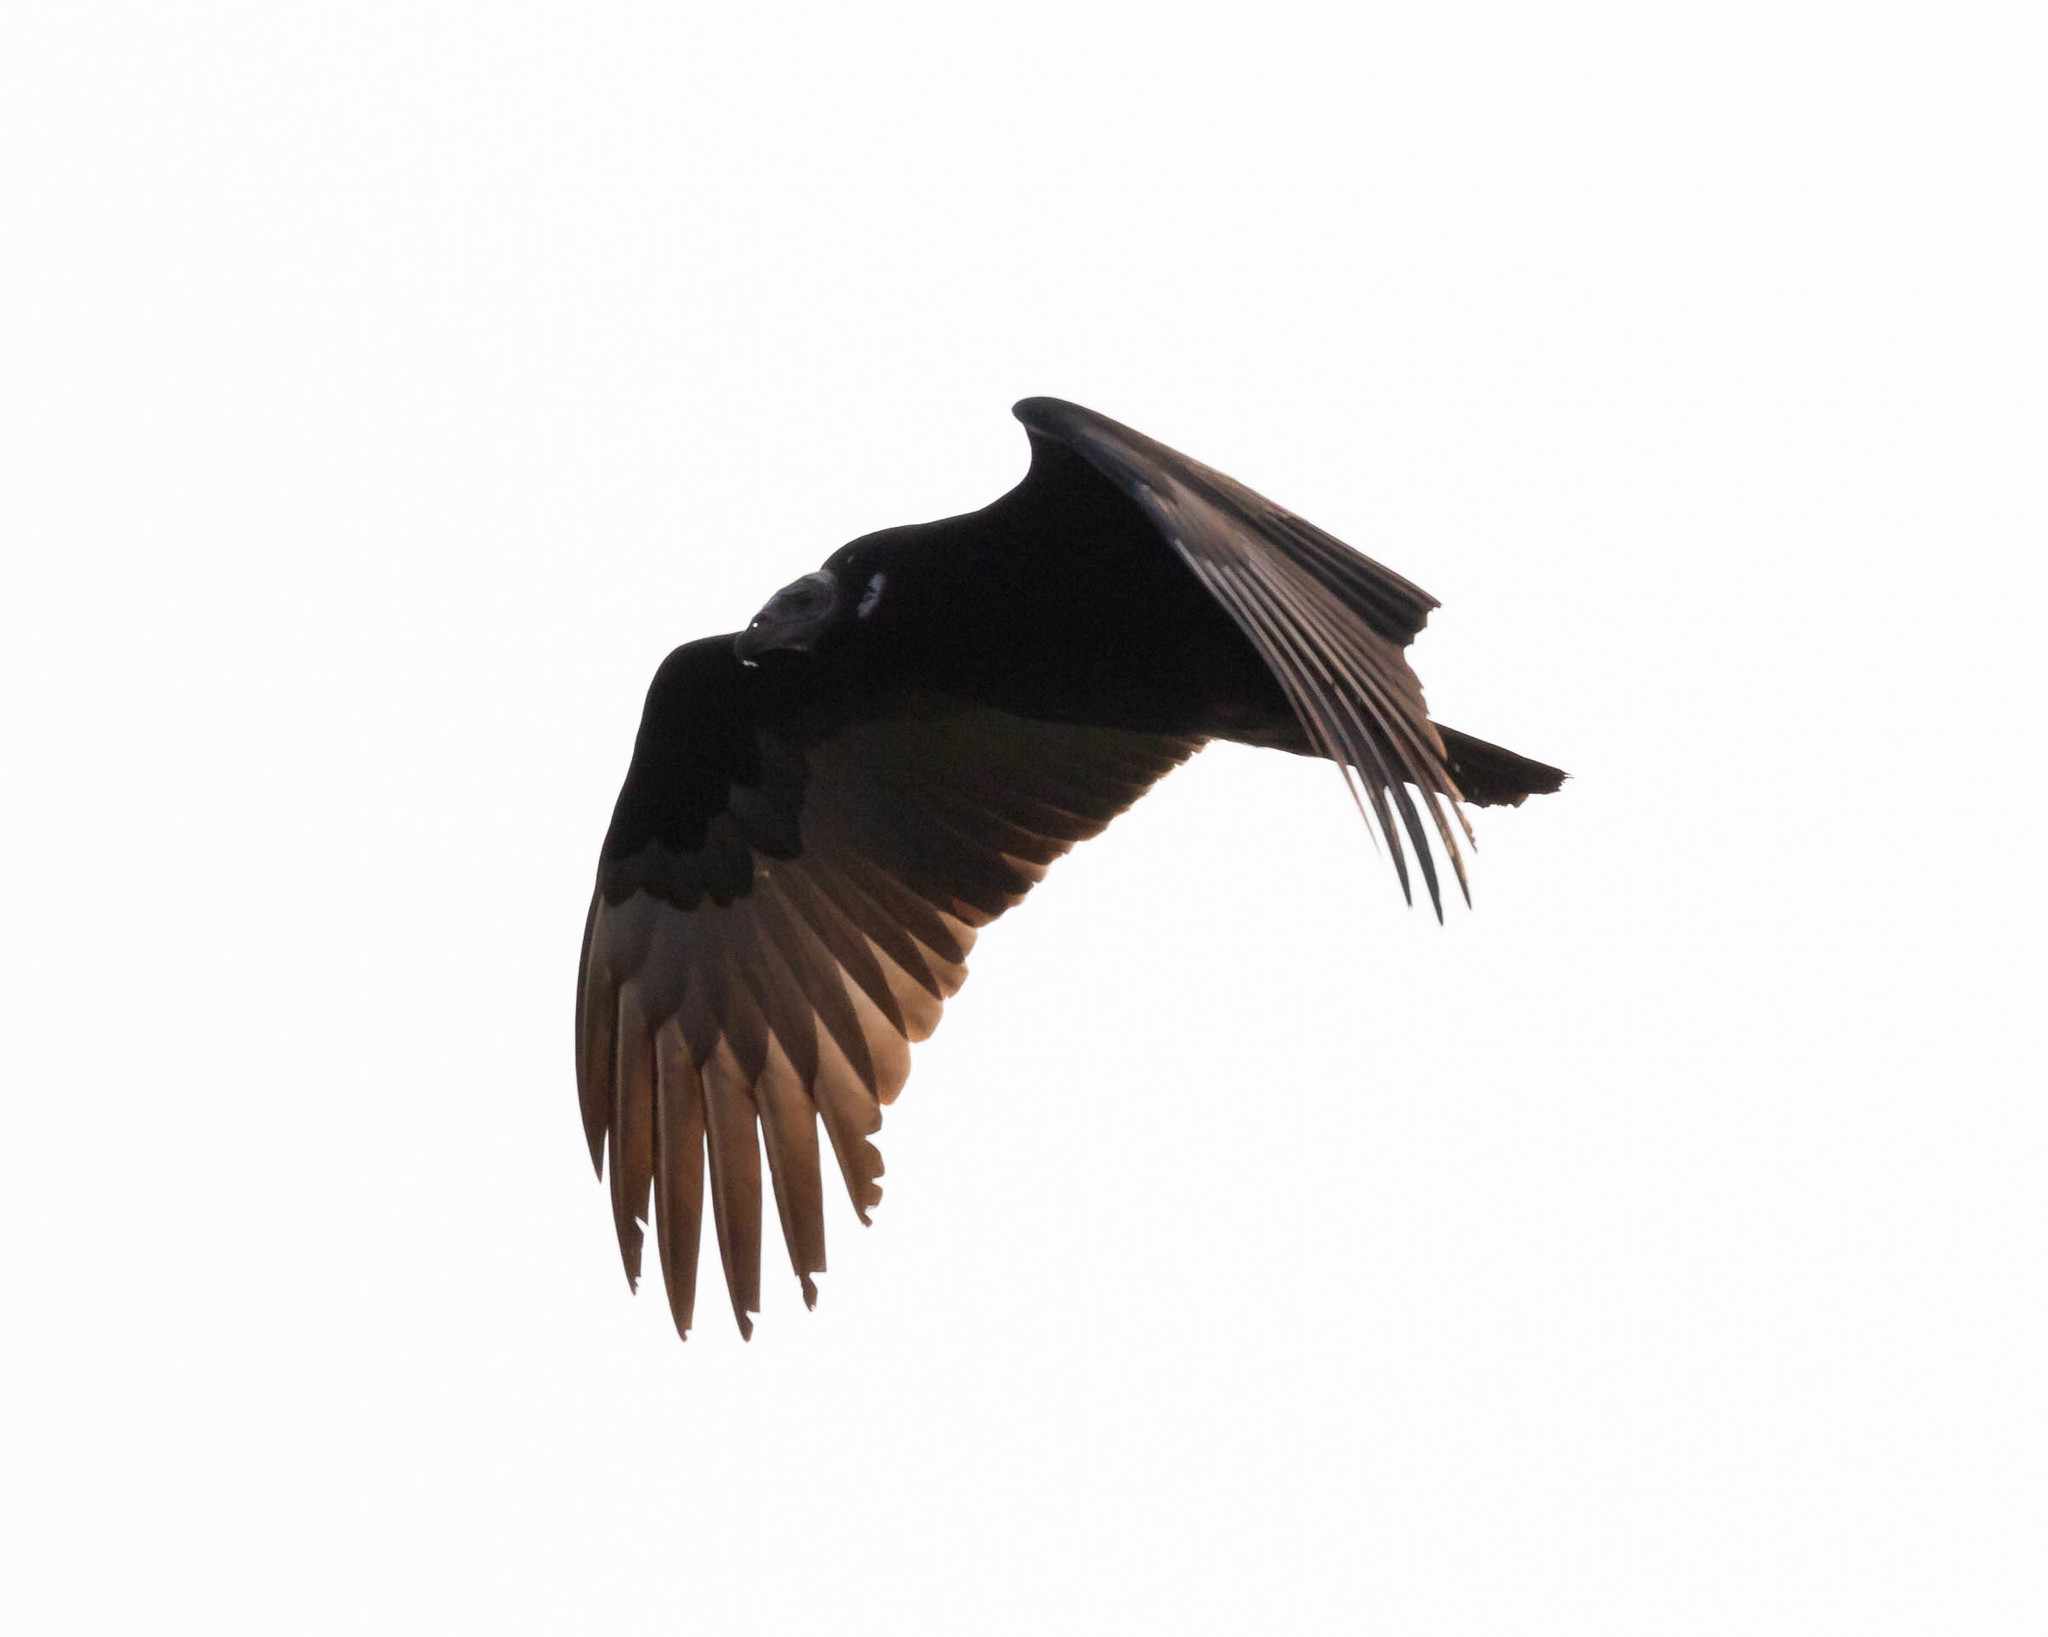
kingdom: Animalia
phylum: Chordata
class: Aves
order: Accipitriformes
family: Cathartidae
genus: Cathartes
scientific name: Cathartes aura
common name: Turkey vulture
